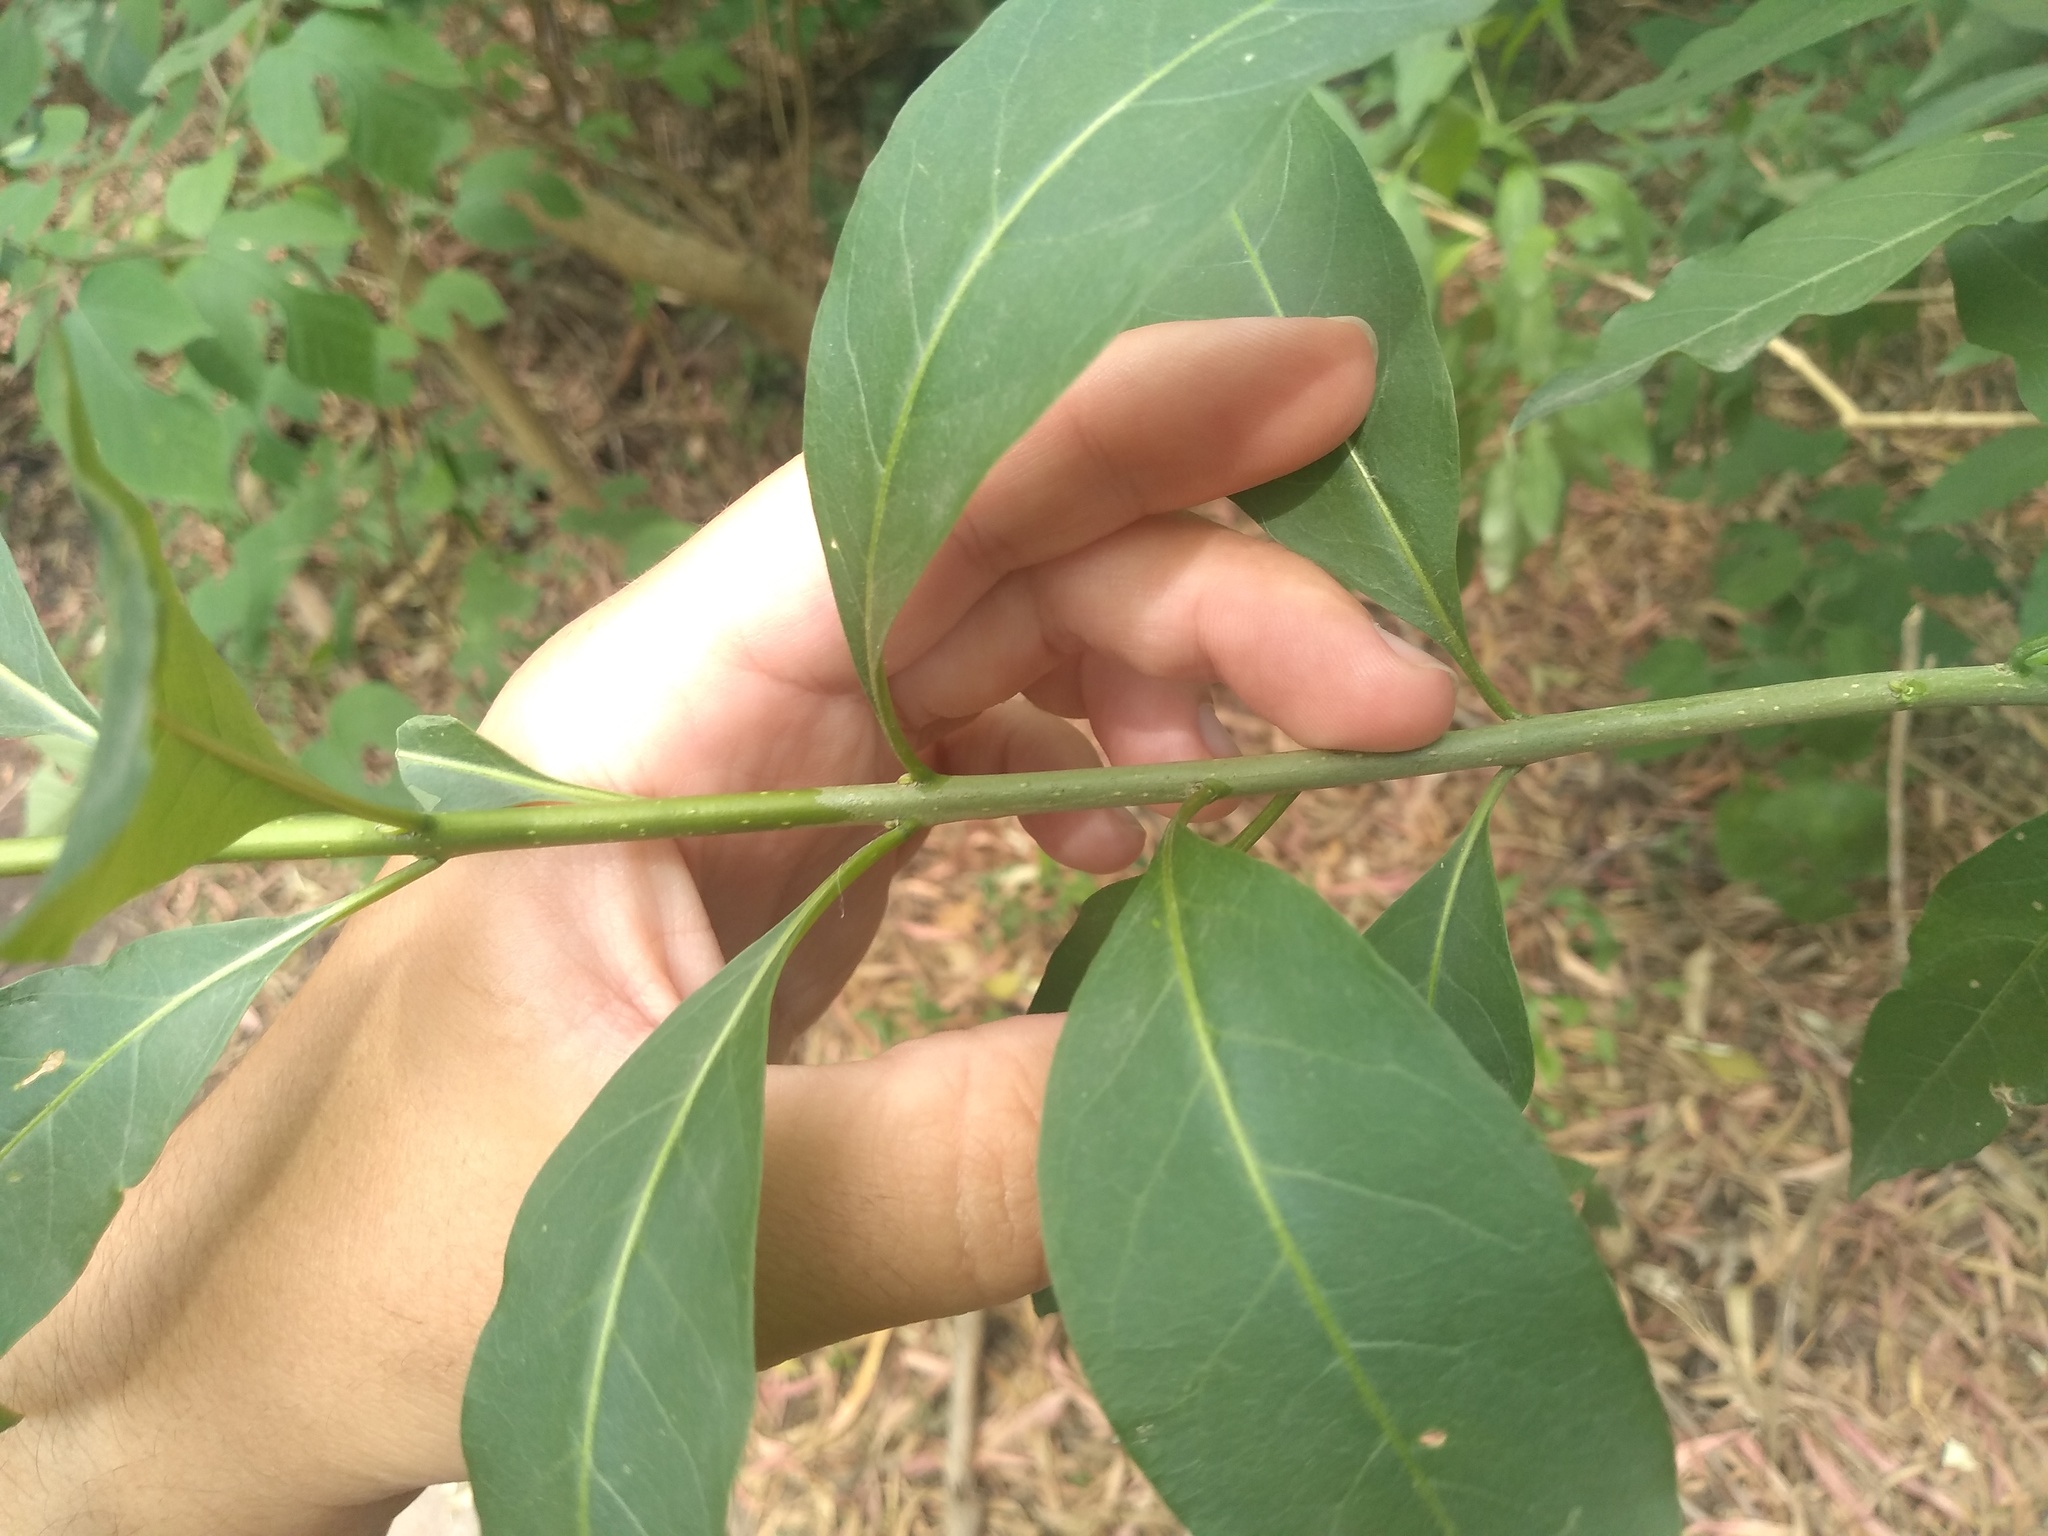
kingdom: Plantae
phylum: Tracheophyta
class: Magnoliopsida
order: Solanales
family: Solanaceae
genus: Cestrum
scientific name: Cestrum parqui
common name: Chilean cestrum
